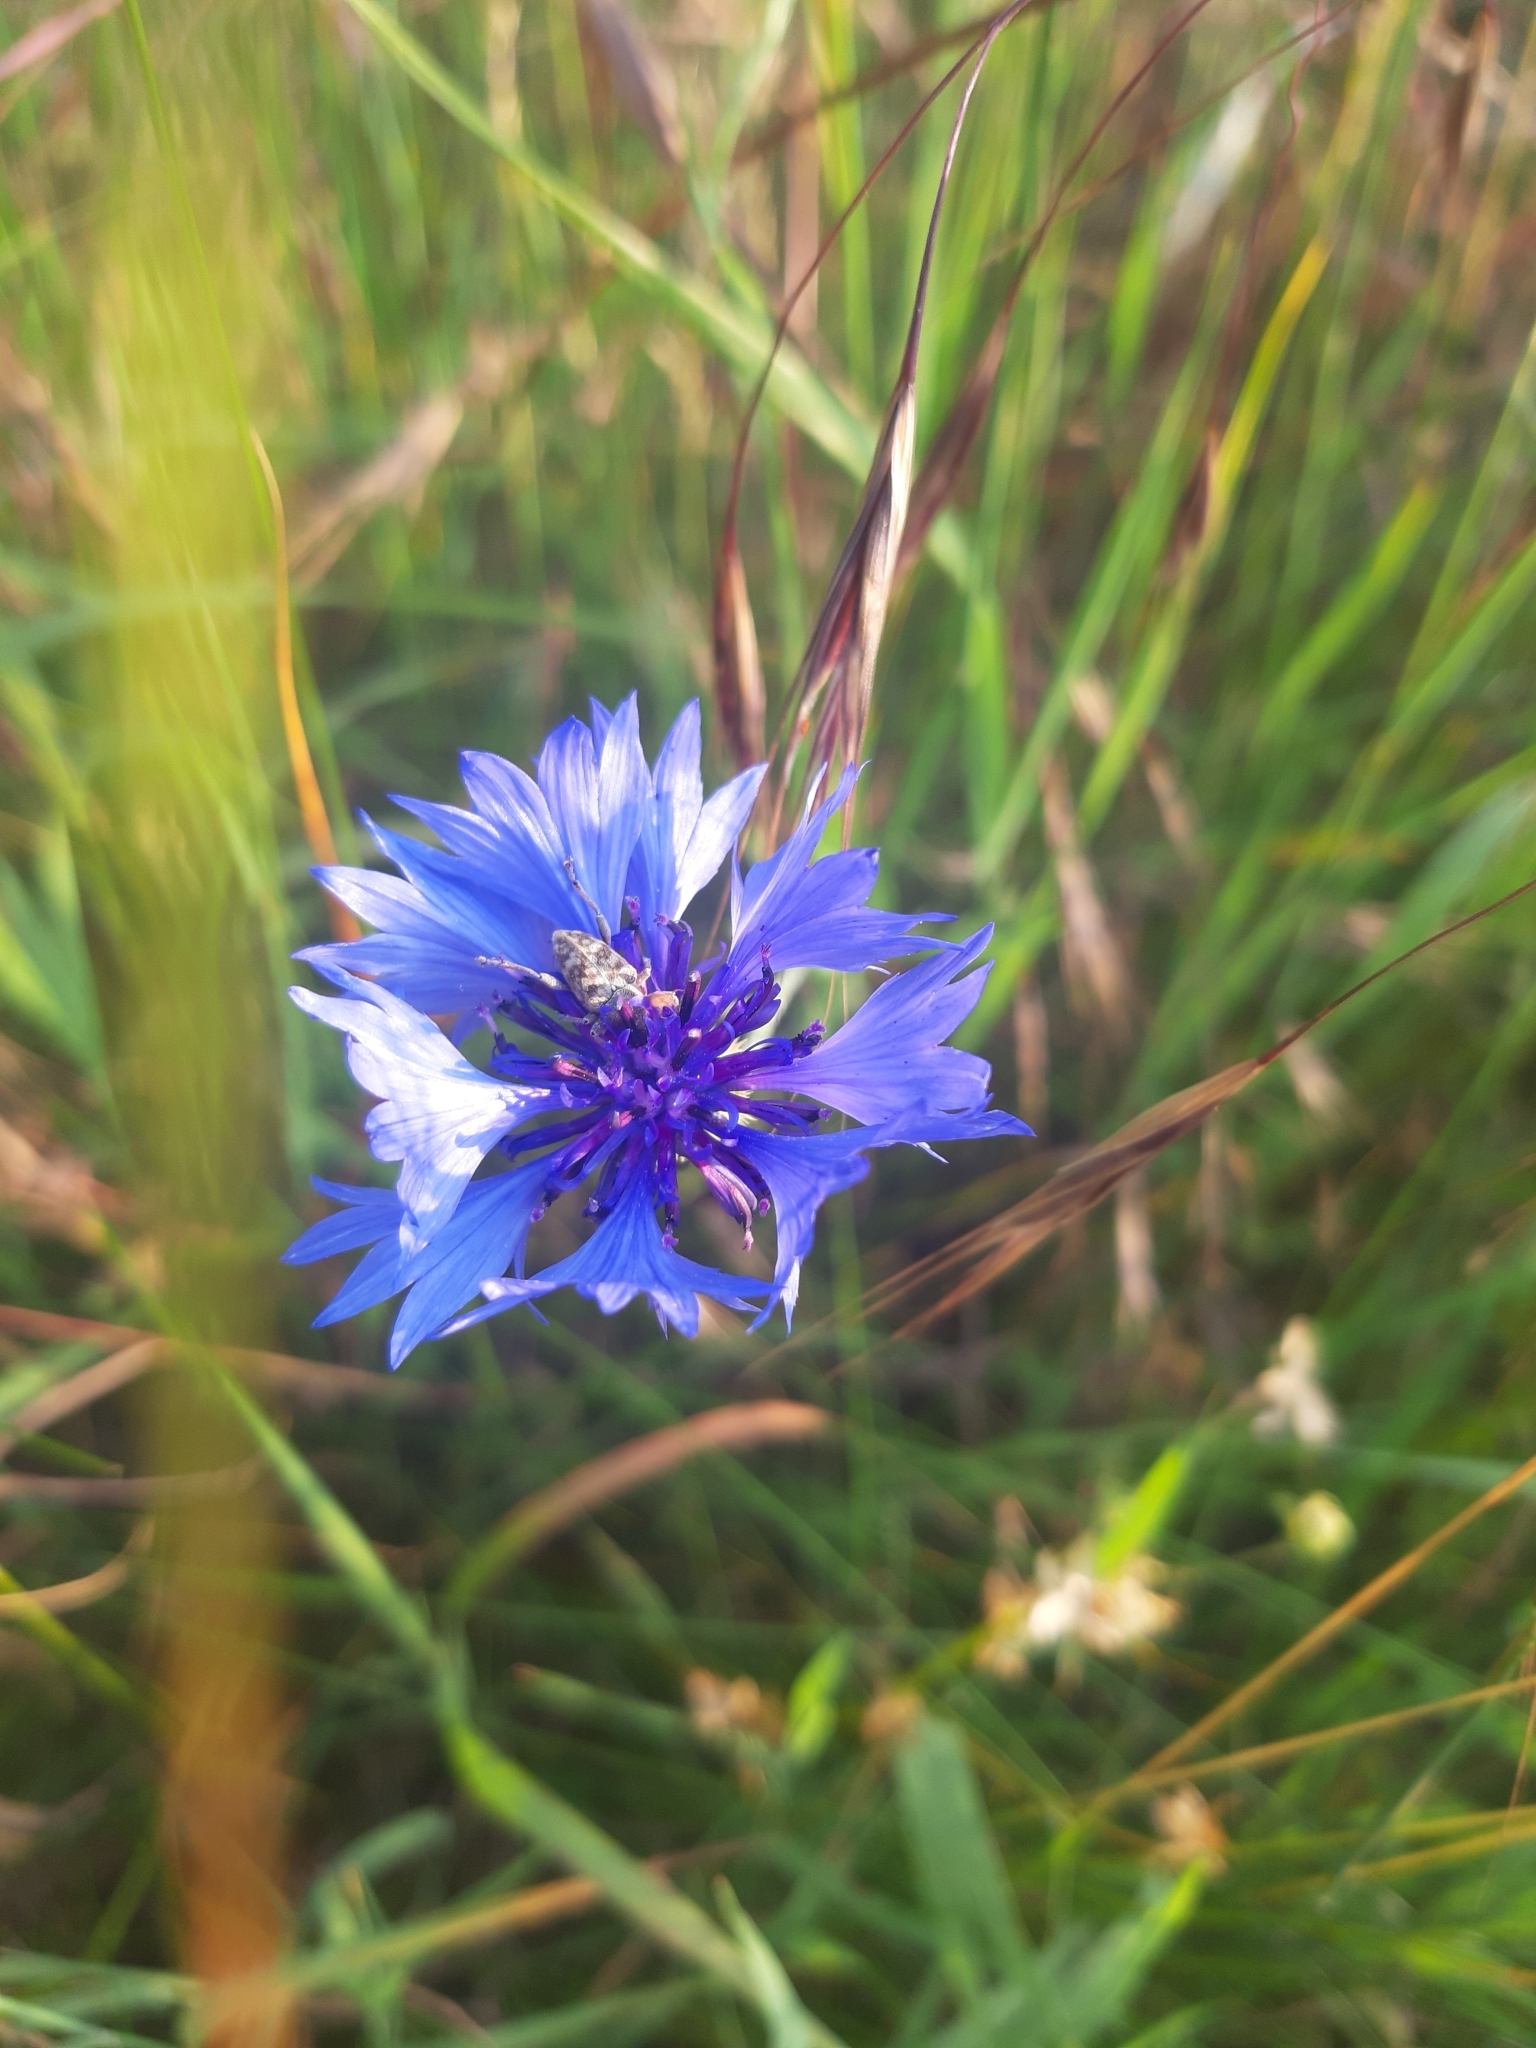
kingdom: Plantae
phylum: Tracheophyta
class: Magnoliopsida
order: Asterales
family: Asteraceae
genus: Centaurea
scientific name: Centaurea cyanus
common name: Cornflower
